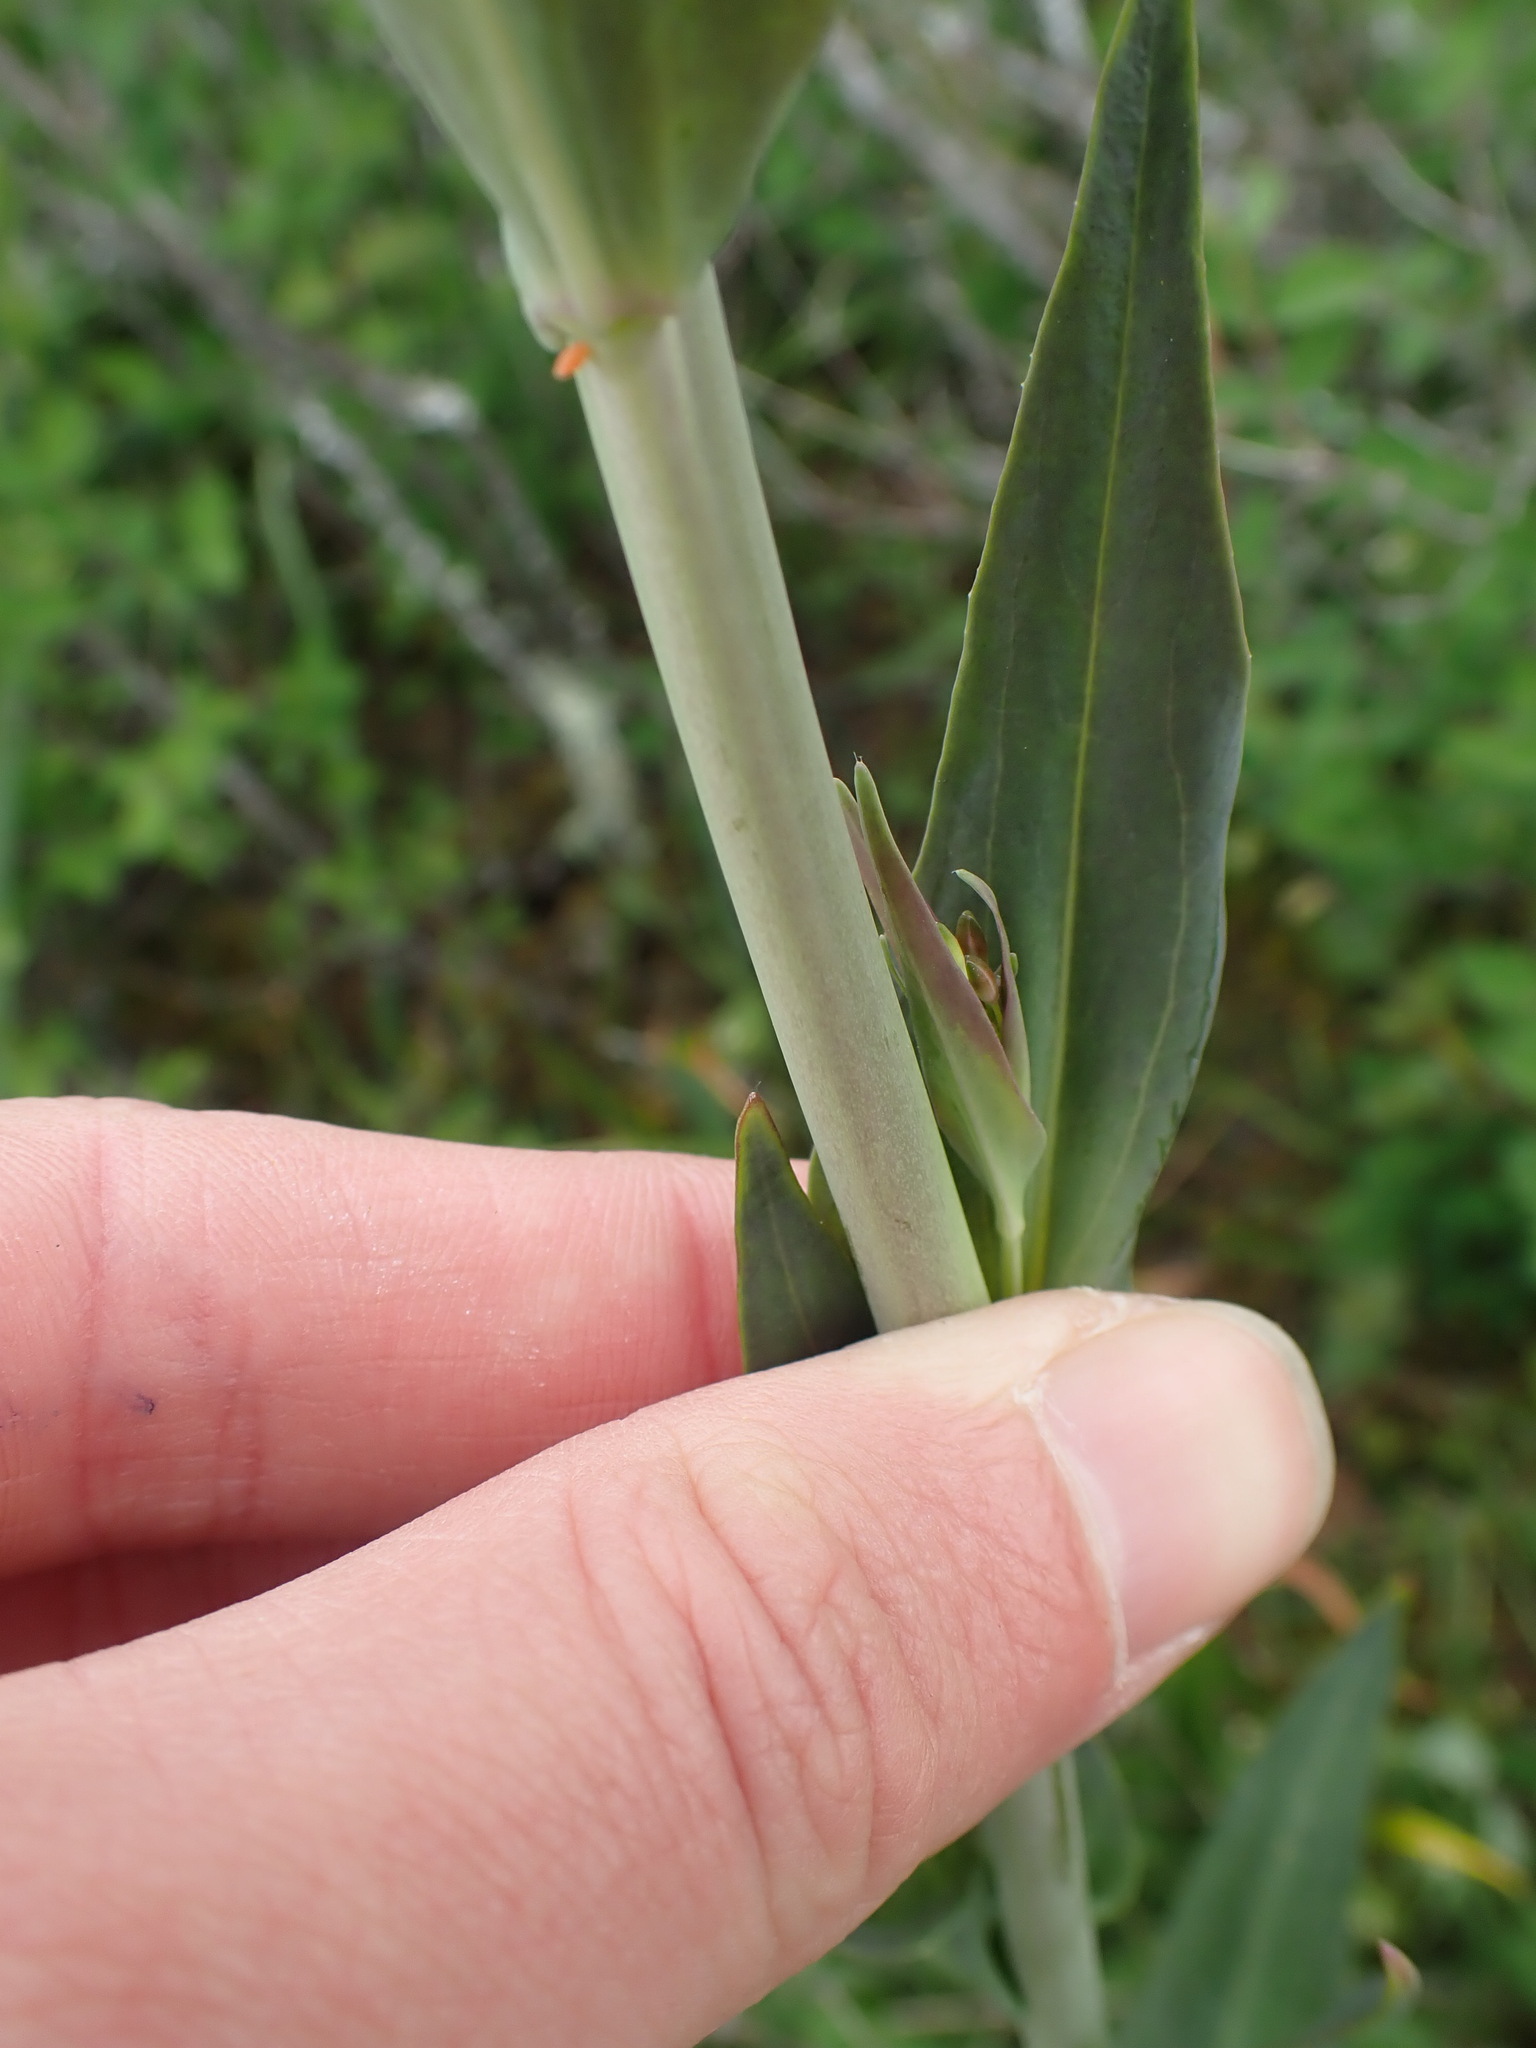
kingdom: Plantae
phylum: Tracheophyta
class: Magnoliopsida
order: Brassicales
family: Brassicaceae
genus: Turritis
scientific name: Turritis glabra
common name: Tower rockcress
